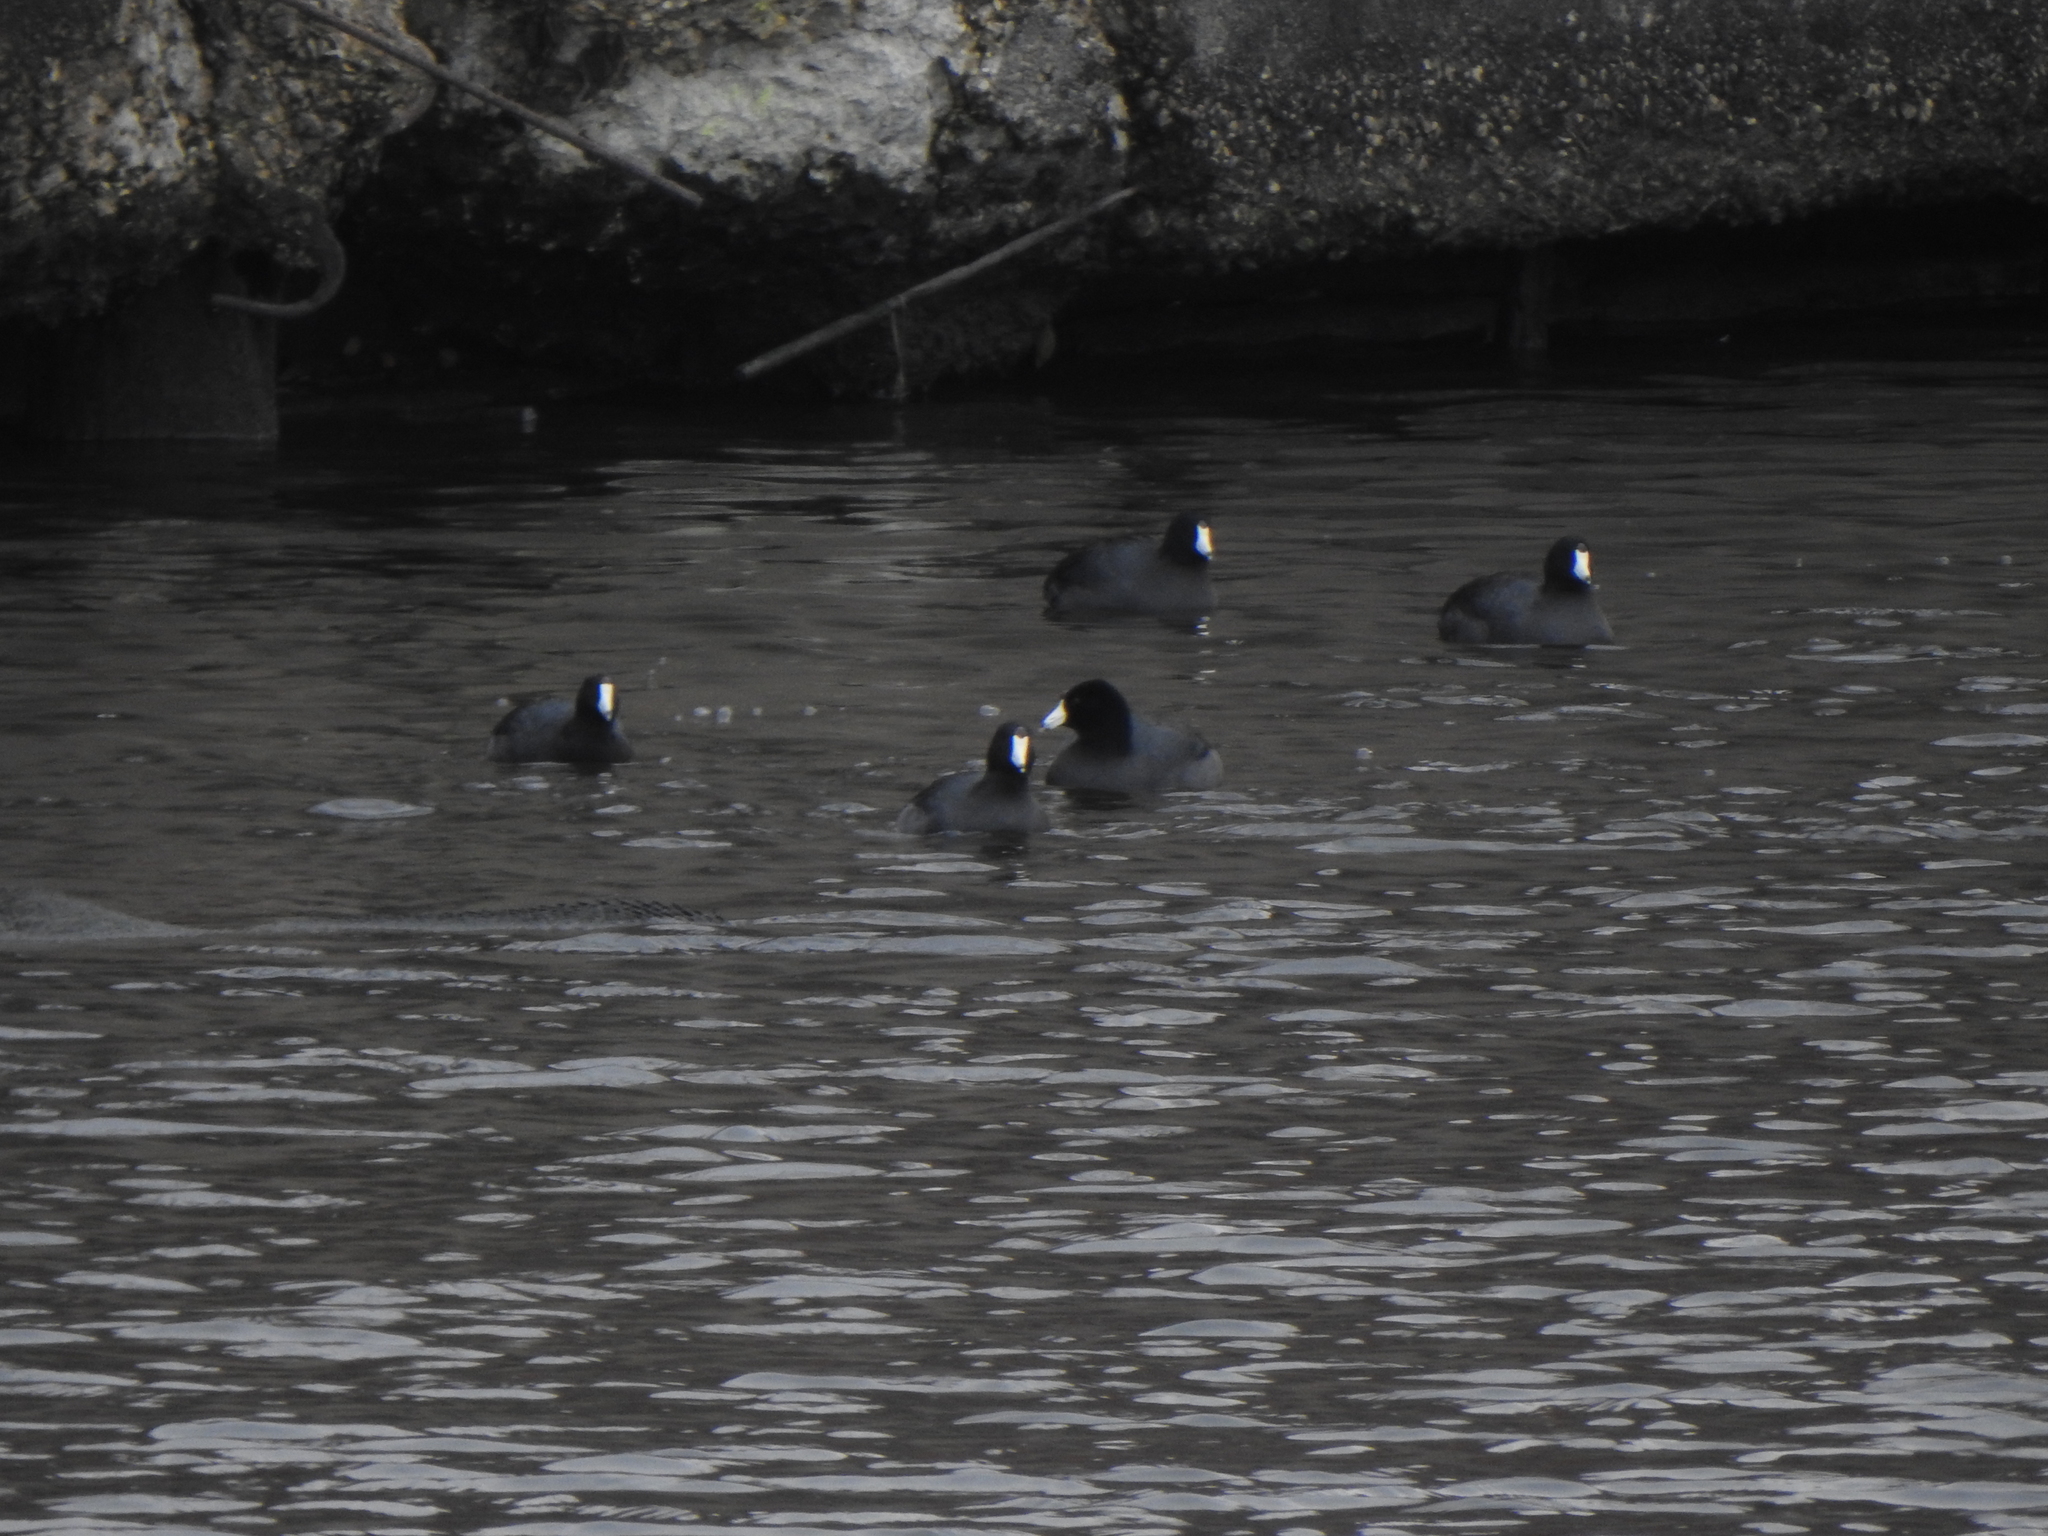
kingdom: Animalia
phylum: Chordata
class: Aves
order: Gruiformes
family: Rallidae
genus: Fulica
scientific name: Fulica americana
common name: American coot
